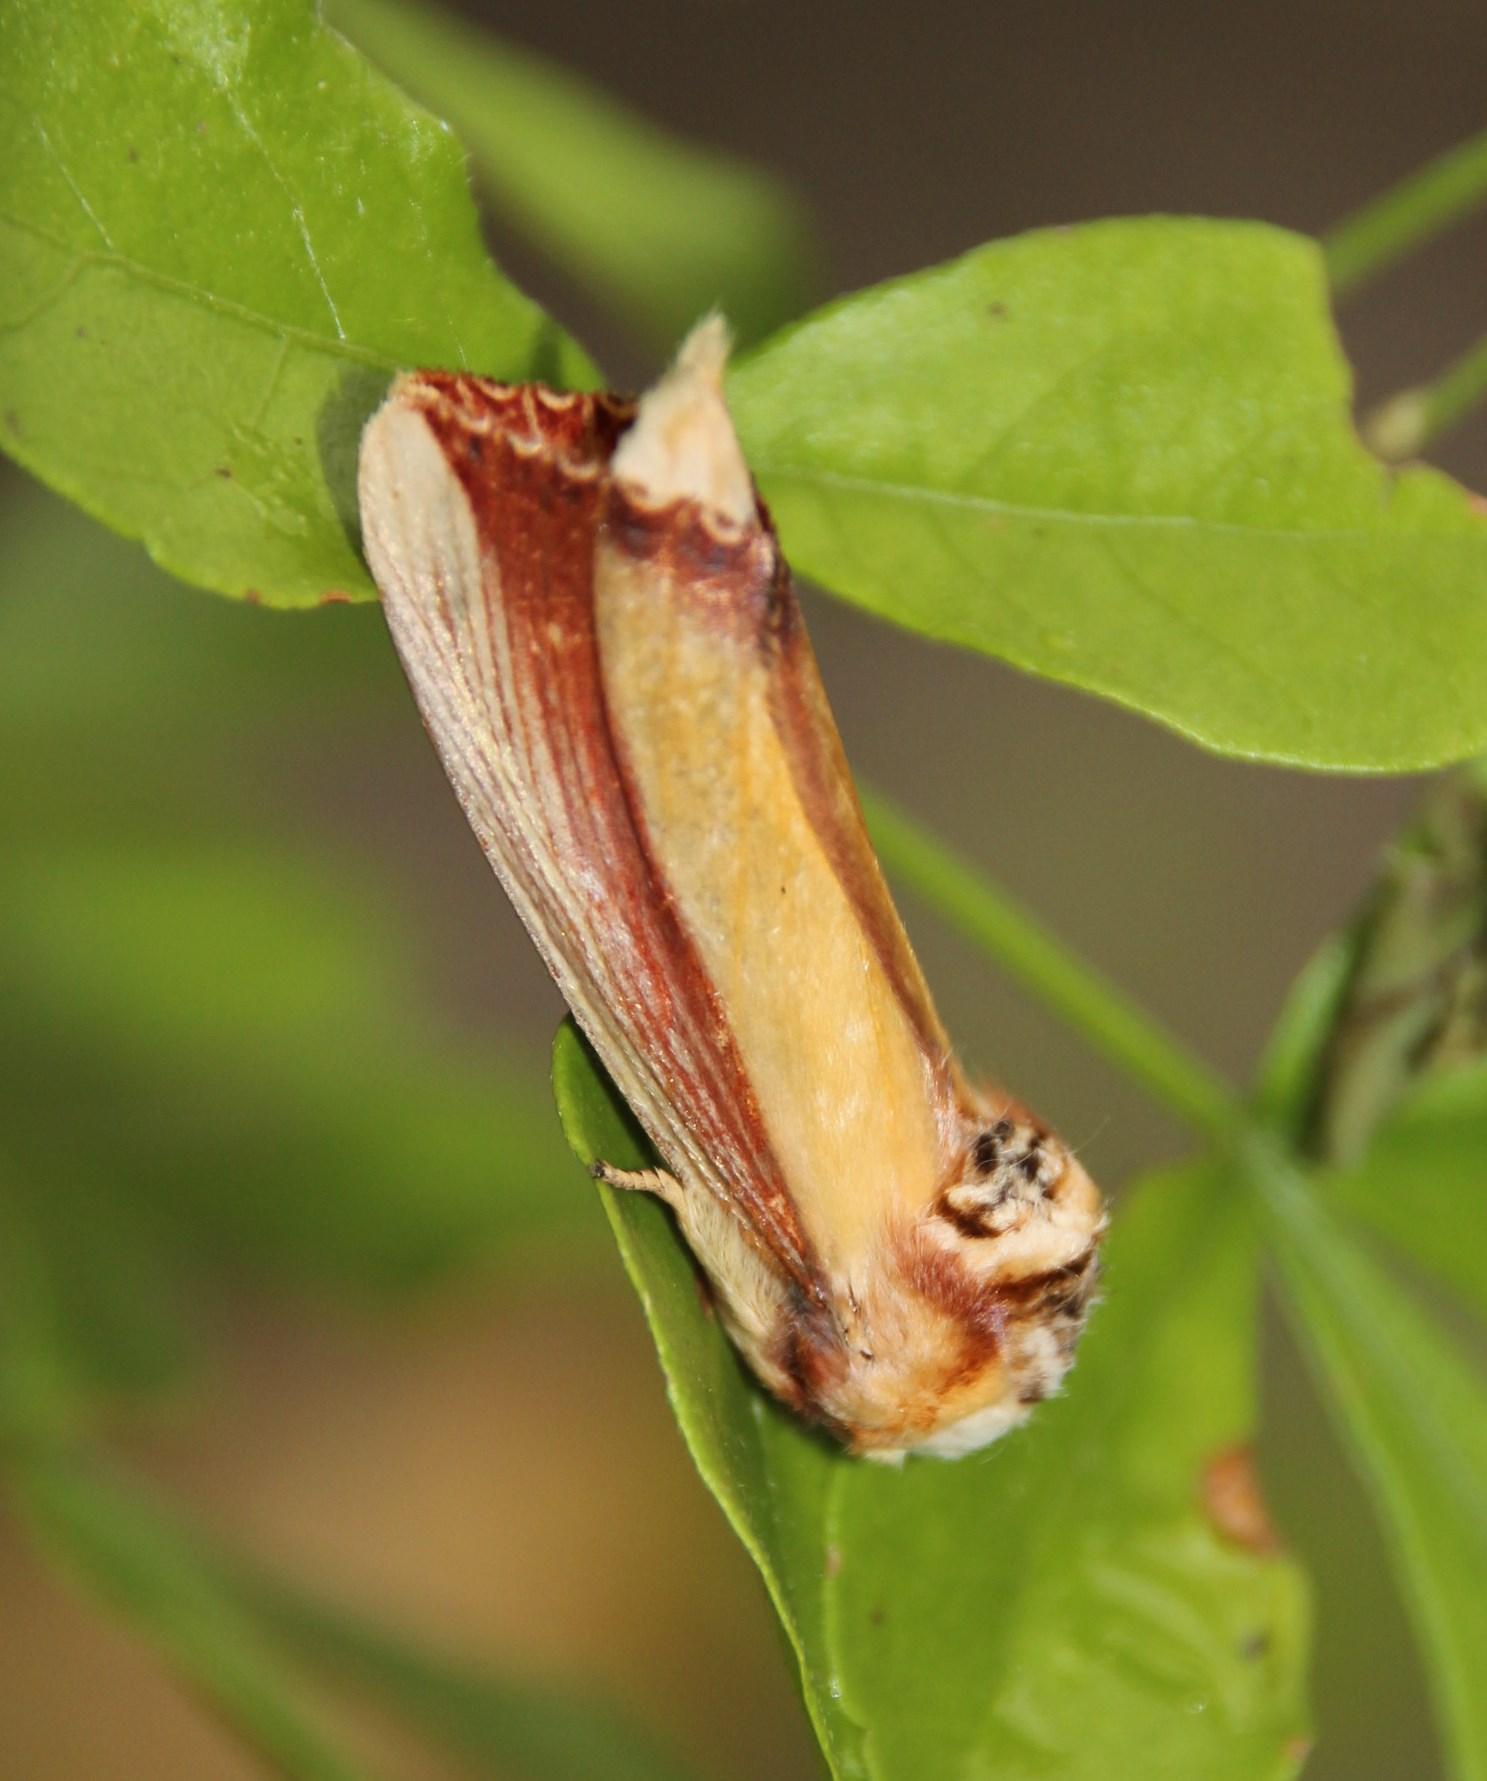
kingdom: Animalia
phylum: Arthropoda
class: Insecta
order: Lepidoptera
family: Notodontidae
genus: Antheua
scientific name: Antheua Rigema ornata
